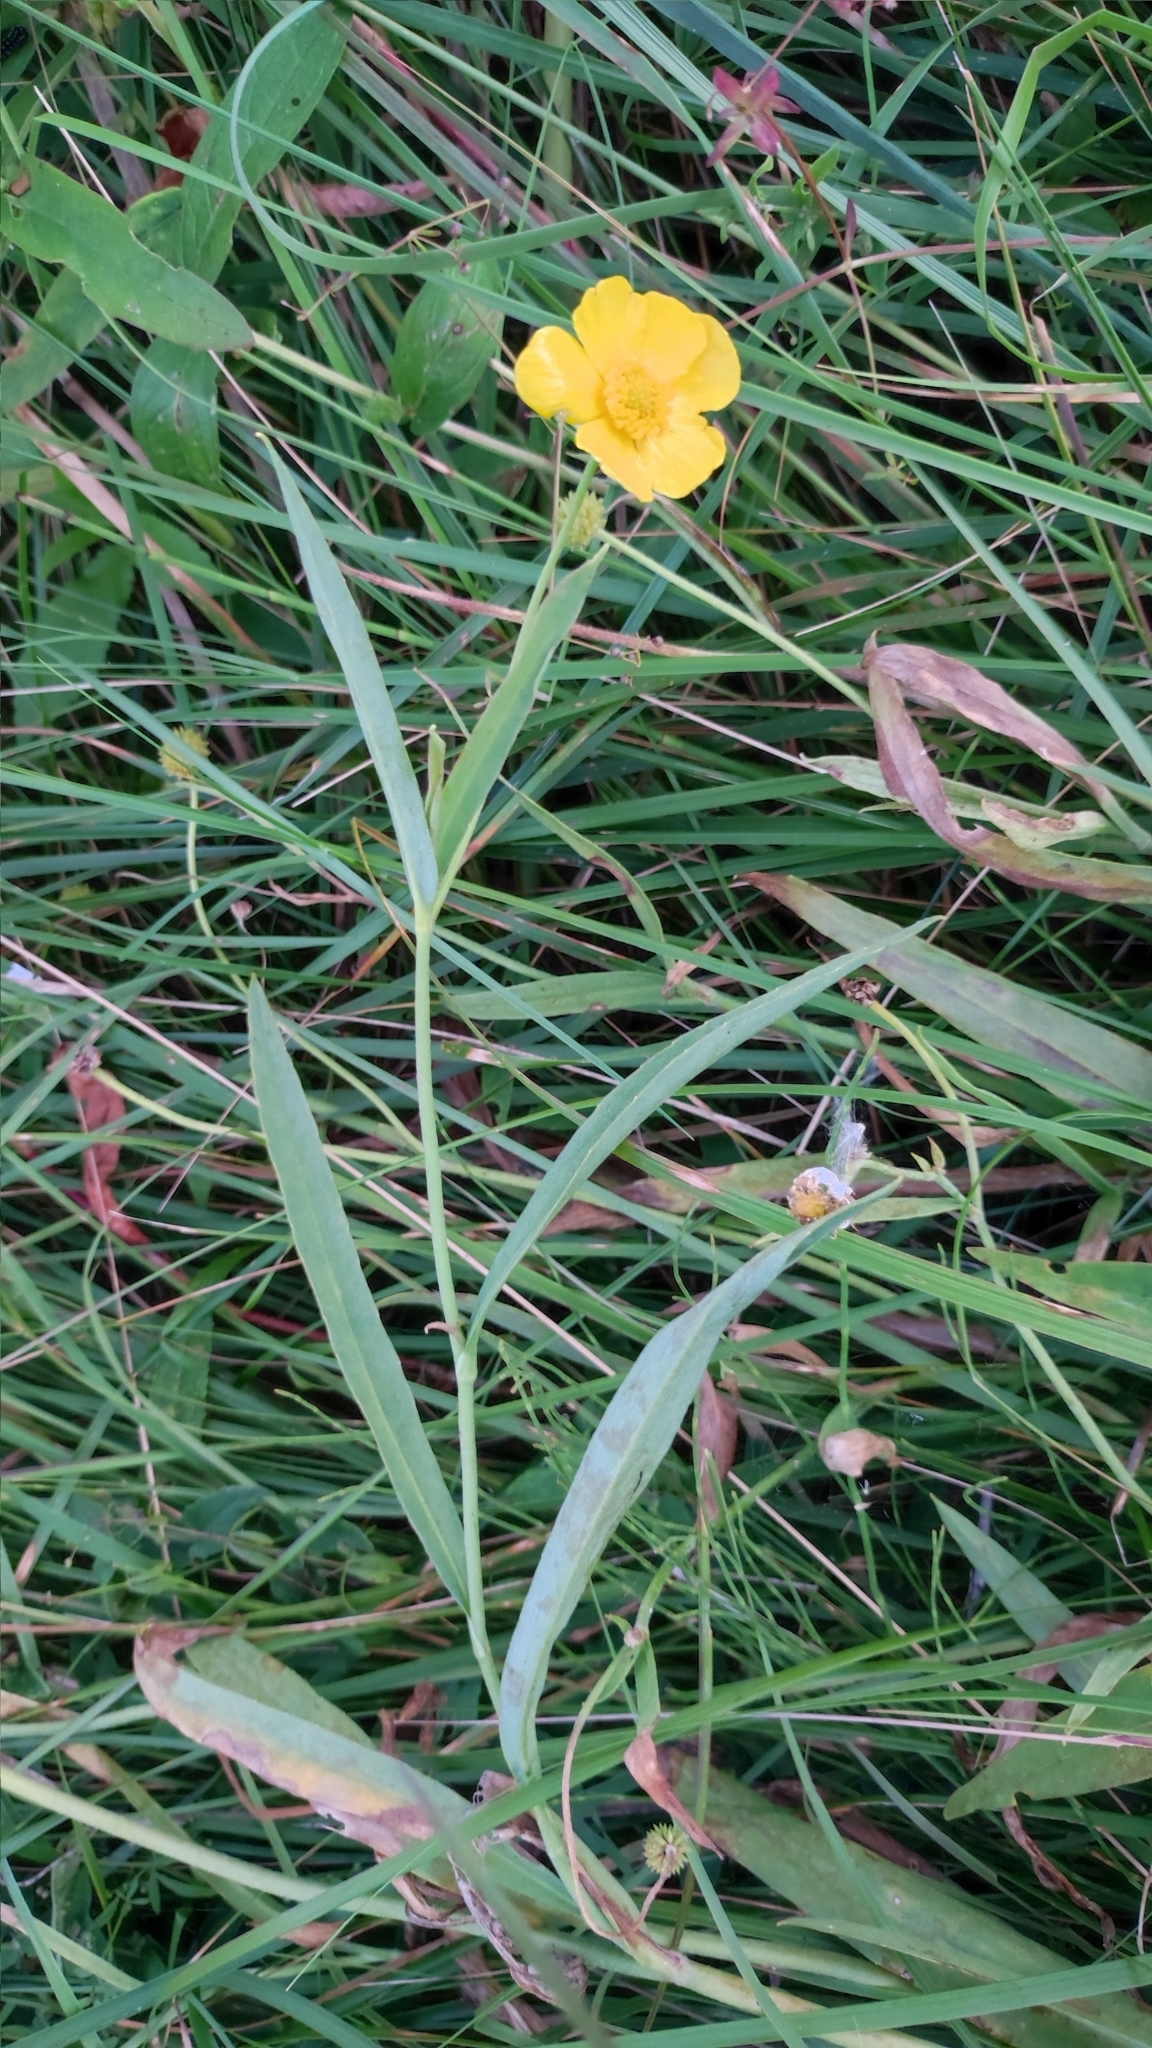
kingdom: Plantae
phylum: Tracheophyta
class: Magnoliopsida
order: Ranunculales
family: Ranunculaceae
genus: Ranunculus
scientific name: Ranunculus lingua
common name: Greater spearwort
